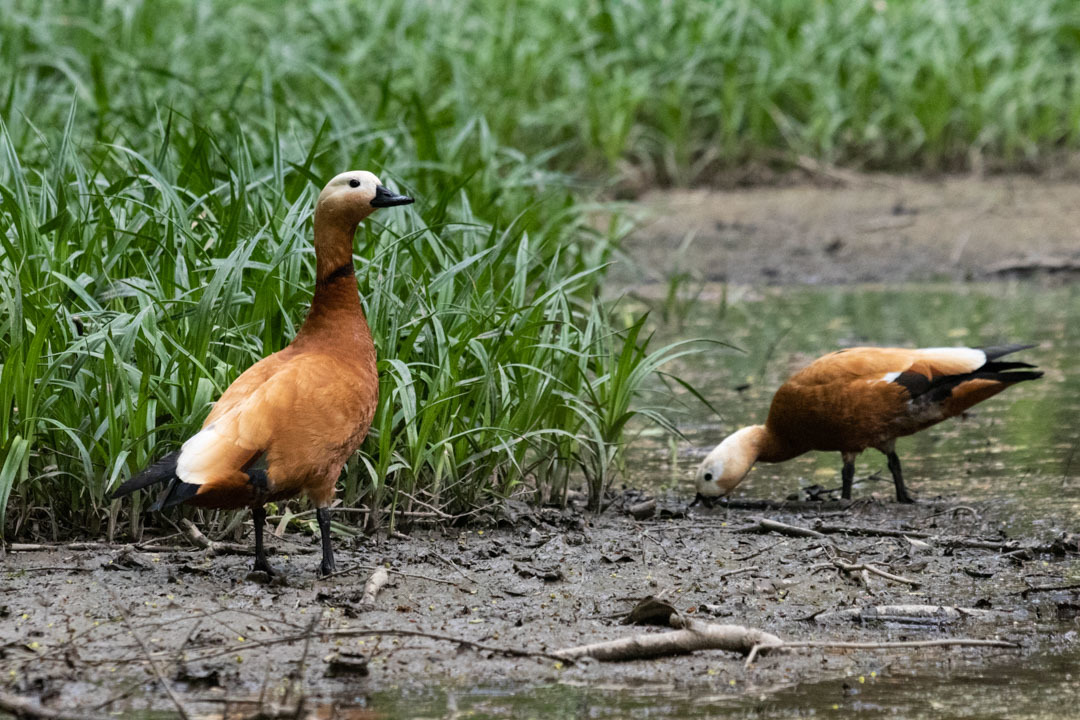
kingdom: Animalia
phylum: Chordata
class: Aves
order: Anseriformes
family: Anatidae
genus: Tadorna
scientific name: Tadorna ferruginea
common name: Ruddy shelduck
